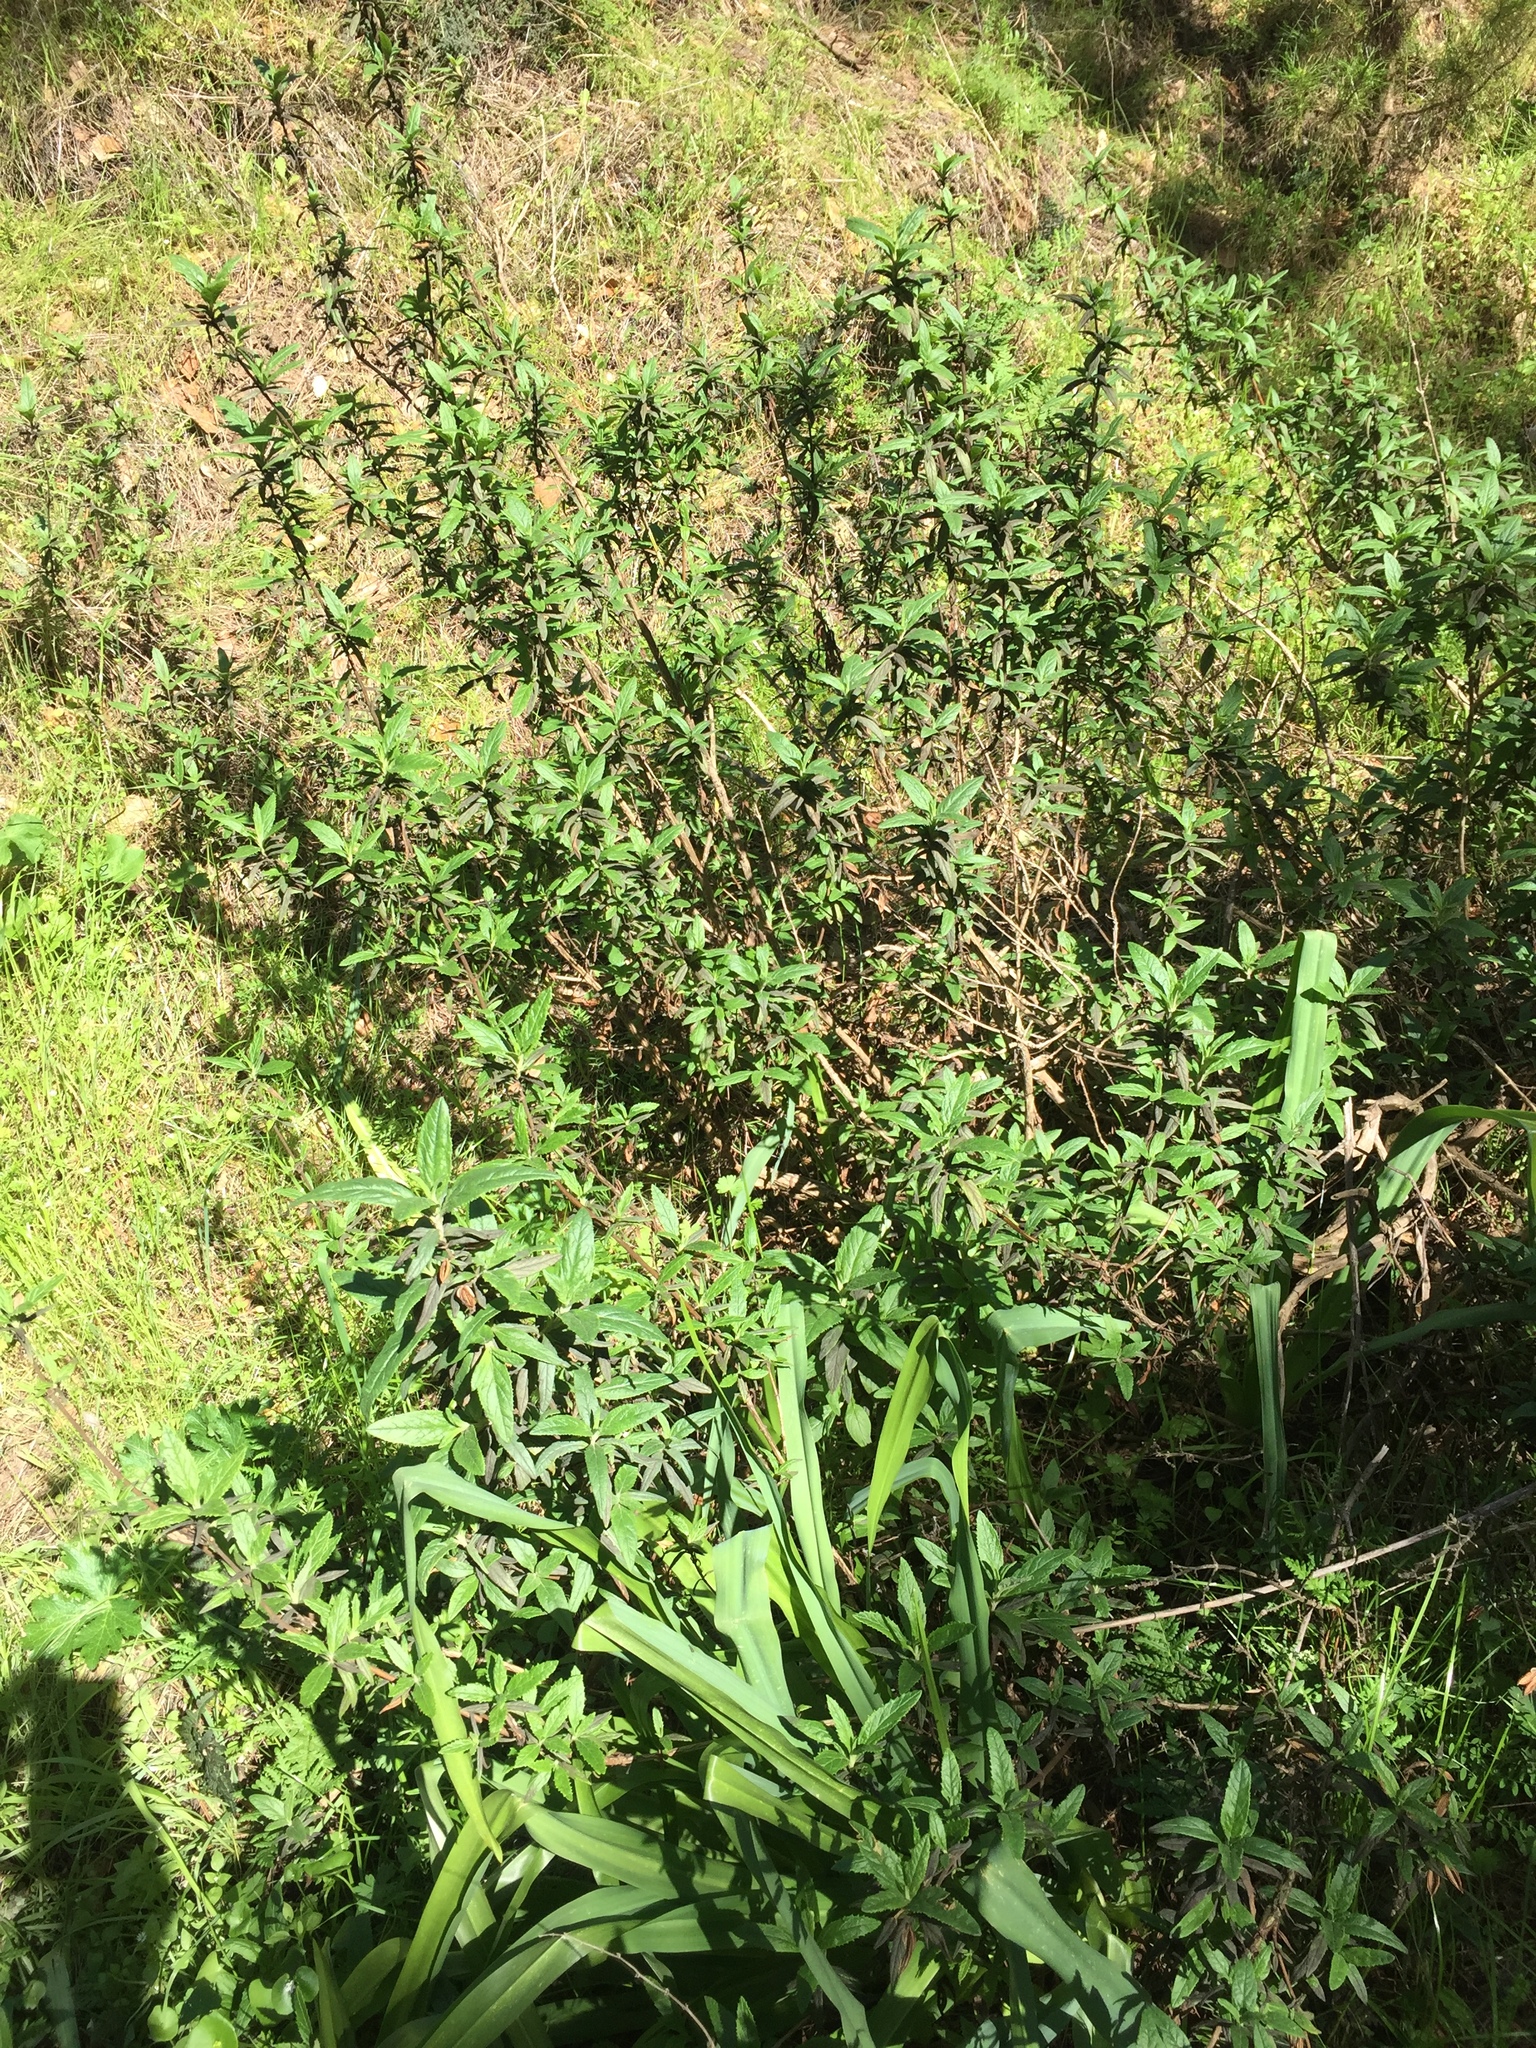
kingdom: Plantae
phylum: Tracheophyta
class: Magnoliopsida
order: Lamiales
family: Phrymaceae
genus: Diplacus
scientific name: Diplacus aurantiacus
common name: Bush monkey-flower
